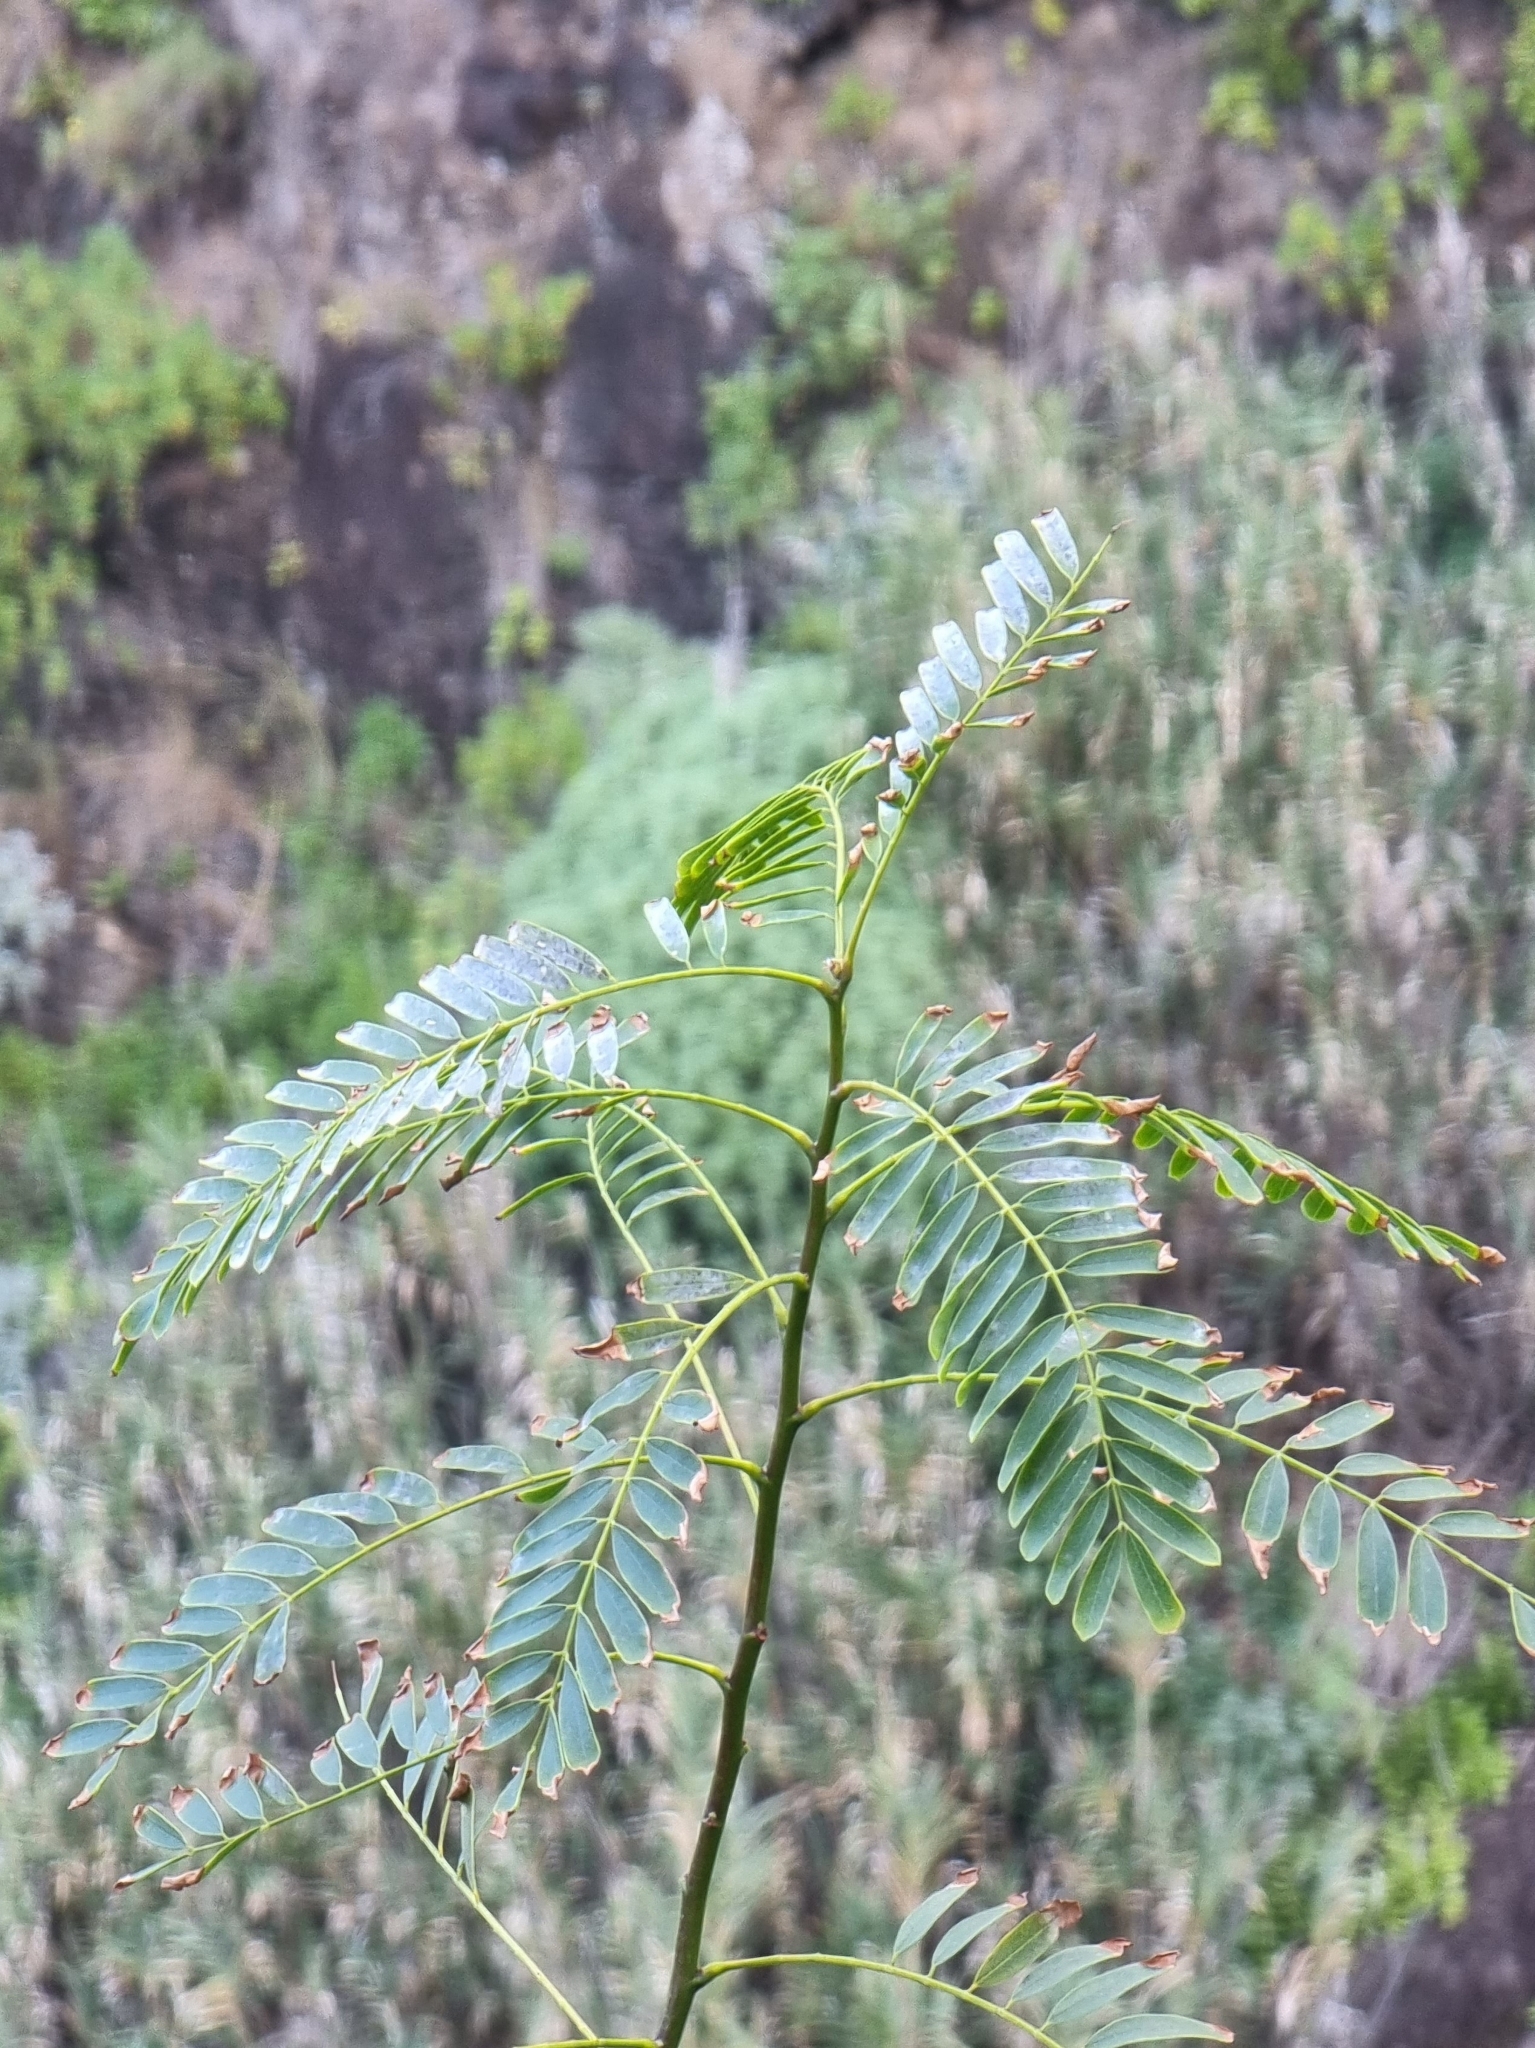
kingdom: Plantae
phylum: Tracheophyta
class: Magnoliopsida
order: Fabales
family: Fabaceae
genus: Sesbania
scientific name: Sesbania punicea
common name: Rattlebox
